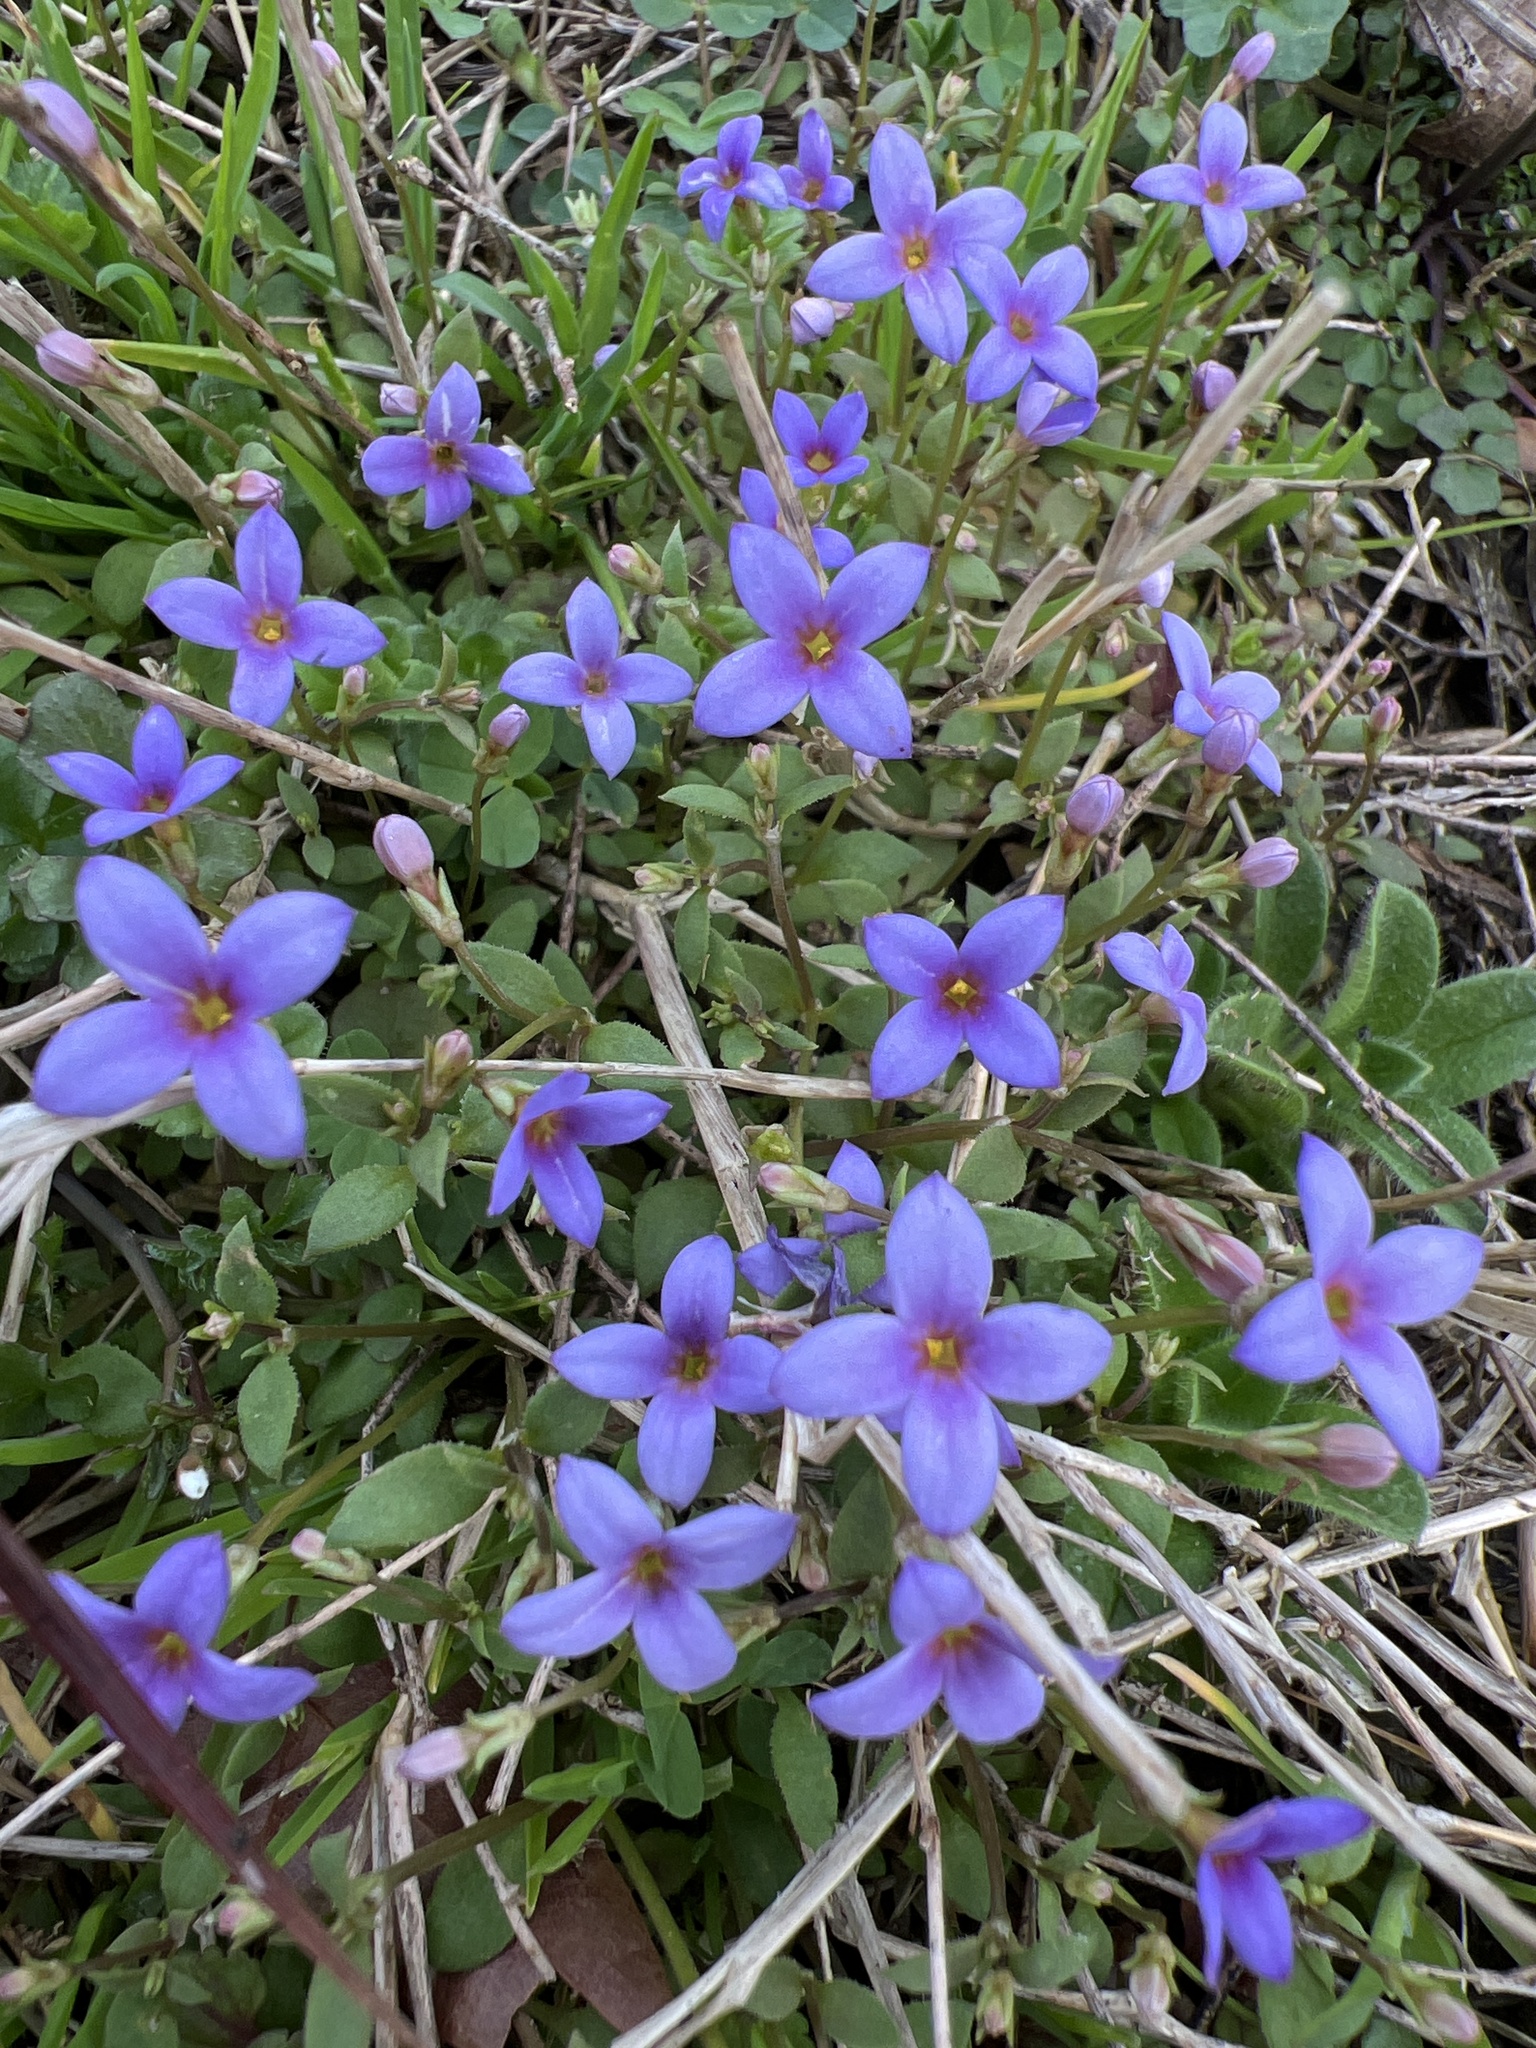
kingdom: Plantae
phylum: Tracheophyta
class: Magnoliopsida
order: Gentianales
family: Rubiaceae
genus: Houstonia
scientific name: Houstonia pusilla
